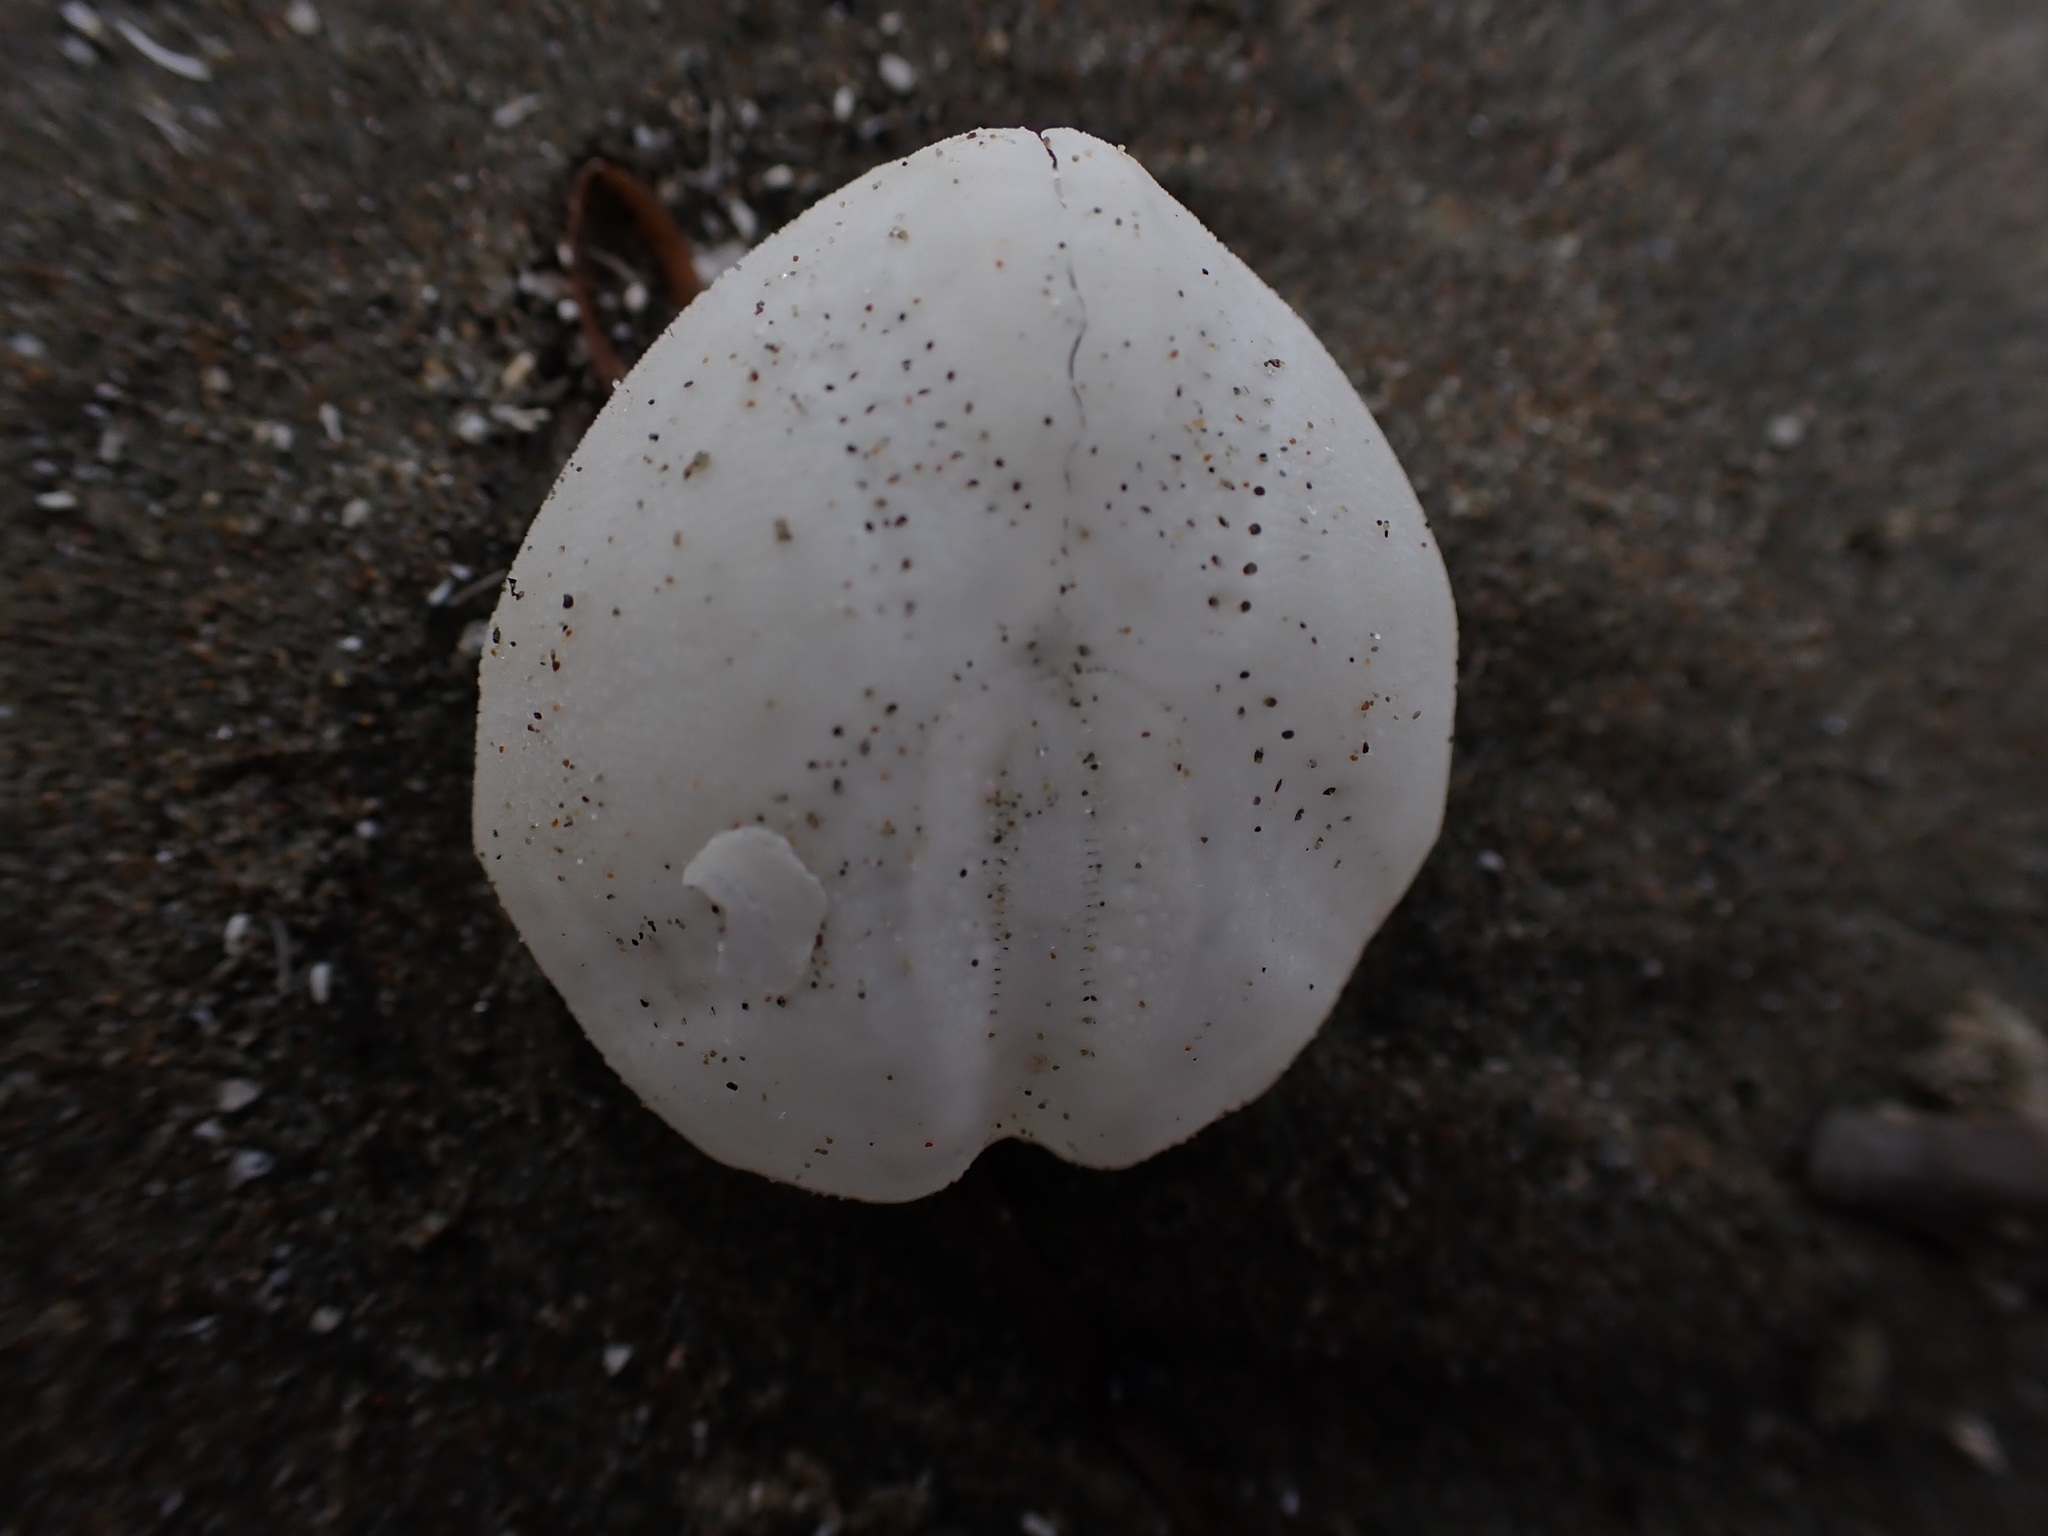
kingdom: Animalia
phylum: Echinodermata
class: Echinoidea
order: Spatangoida
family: Loveniidae
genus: Echinocardium
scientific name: Echinocardium cordatum
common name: Heart-urchin
